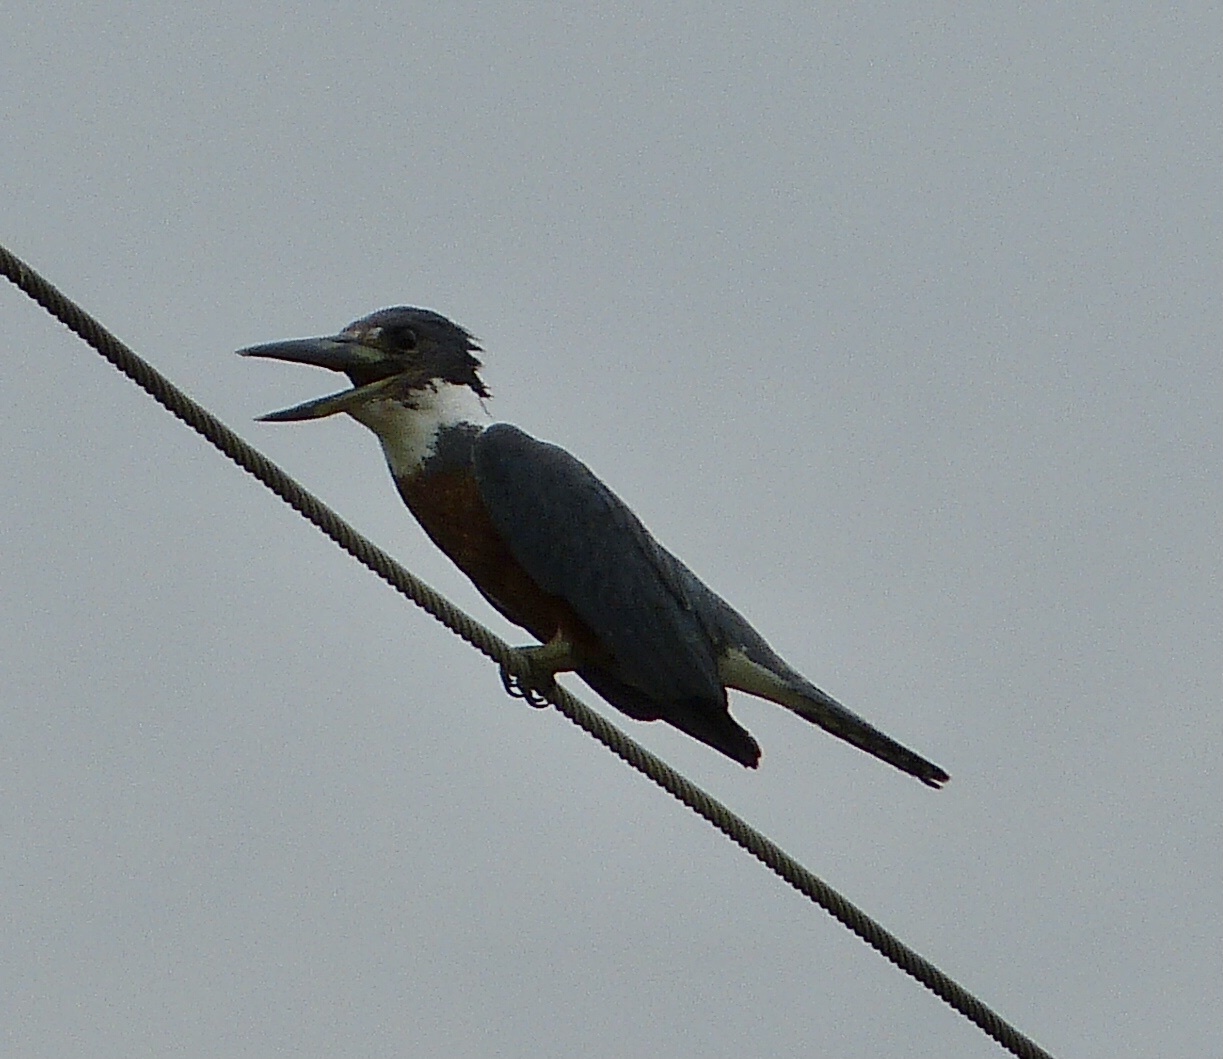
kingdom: Animalia
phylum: Chordata
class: Aves
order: Coraciiformes
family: Alcedinidae
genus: Megaceryle
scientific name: Megaceryle torquata
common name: Ringed kingfisher
